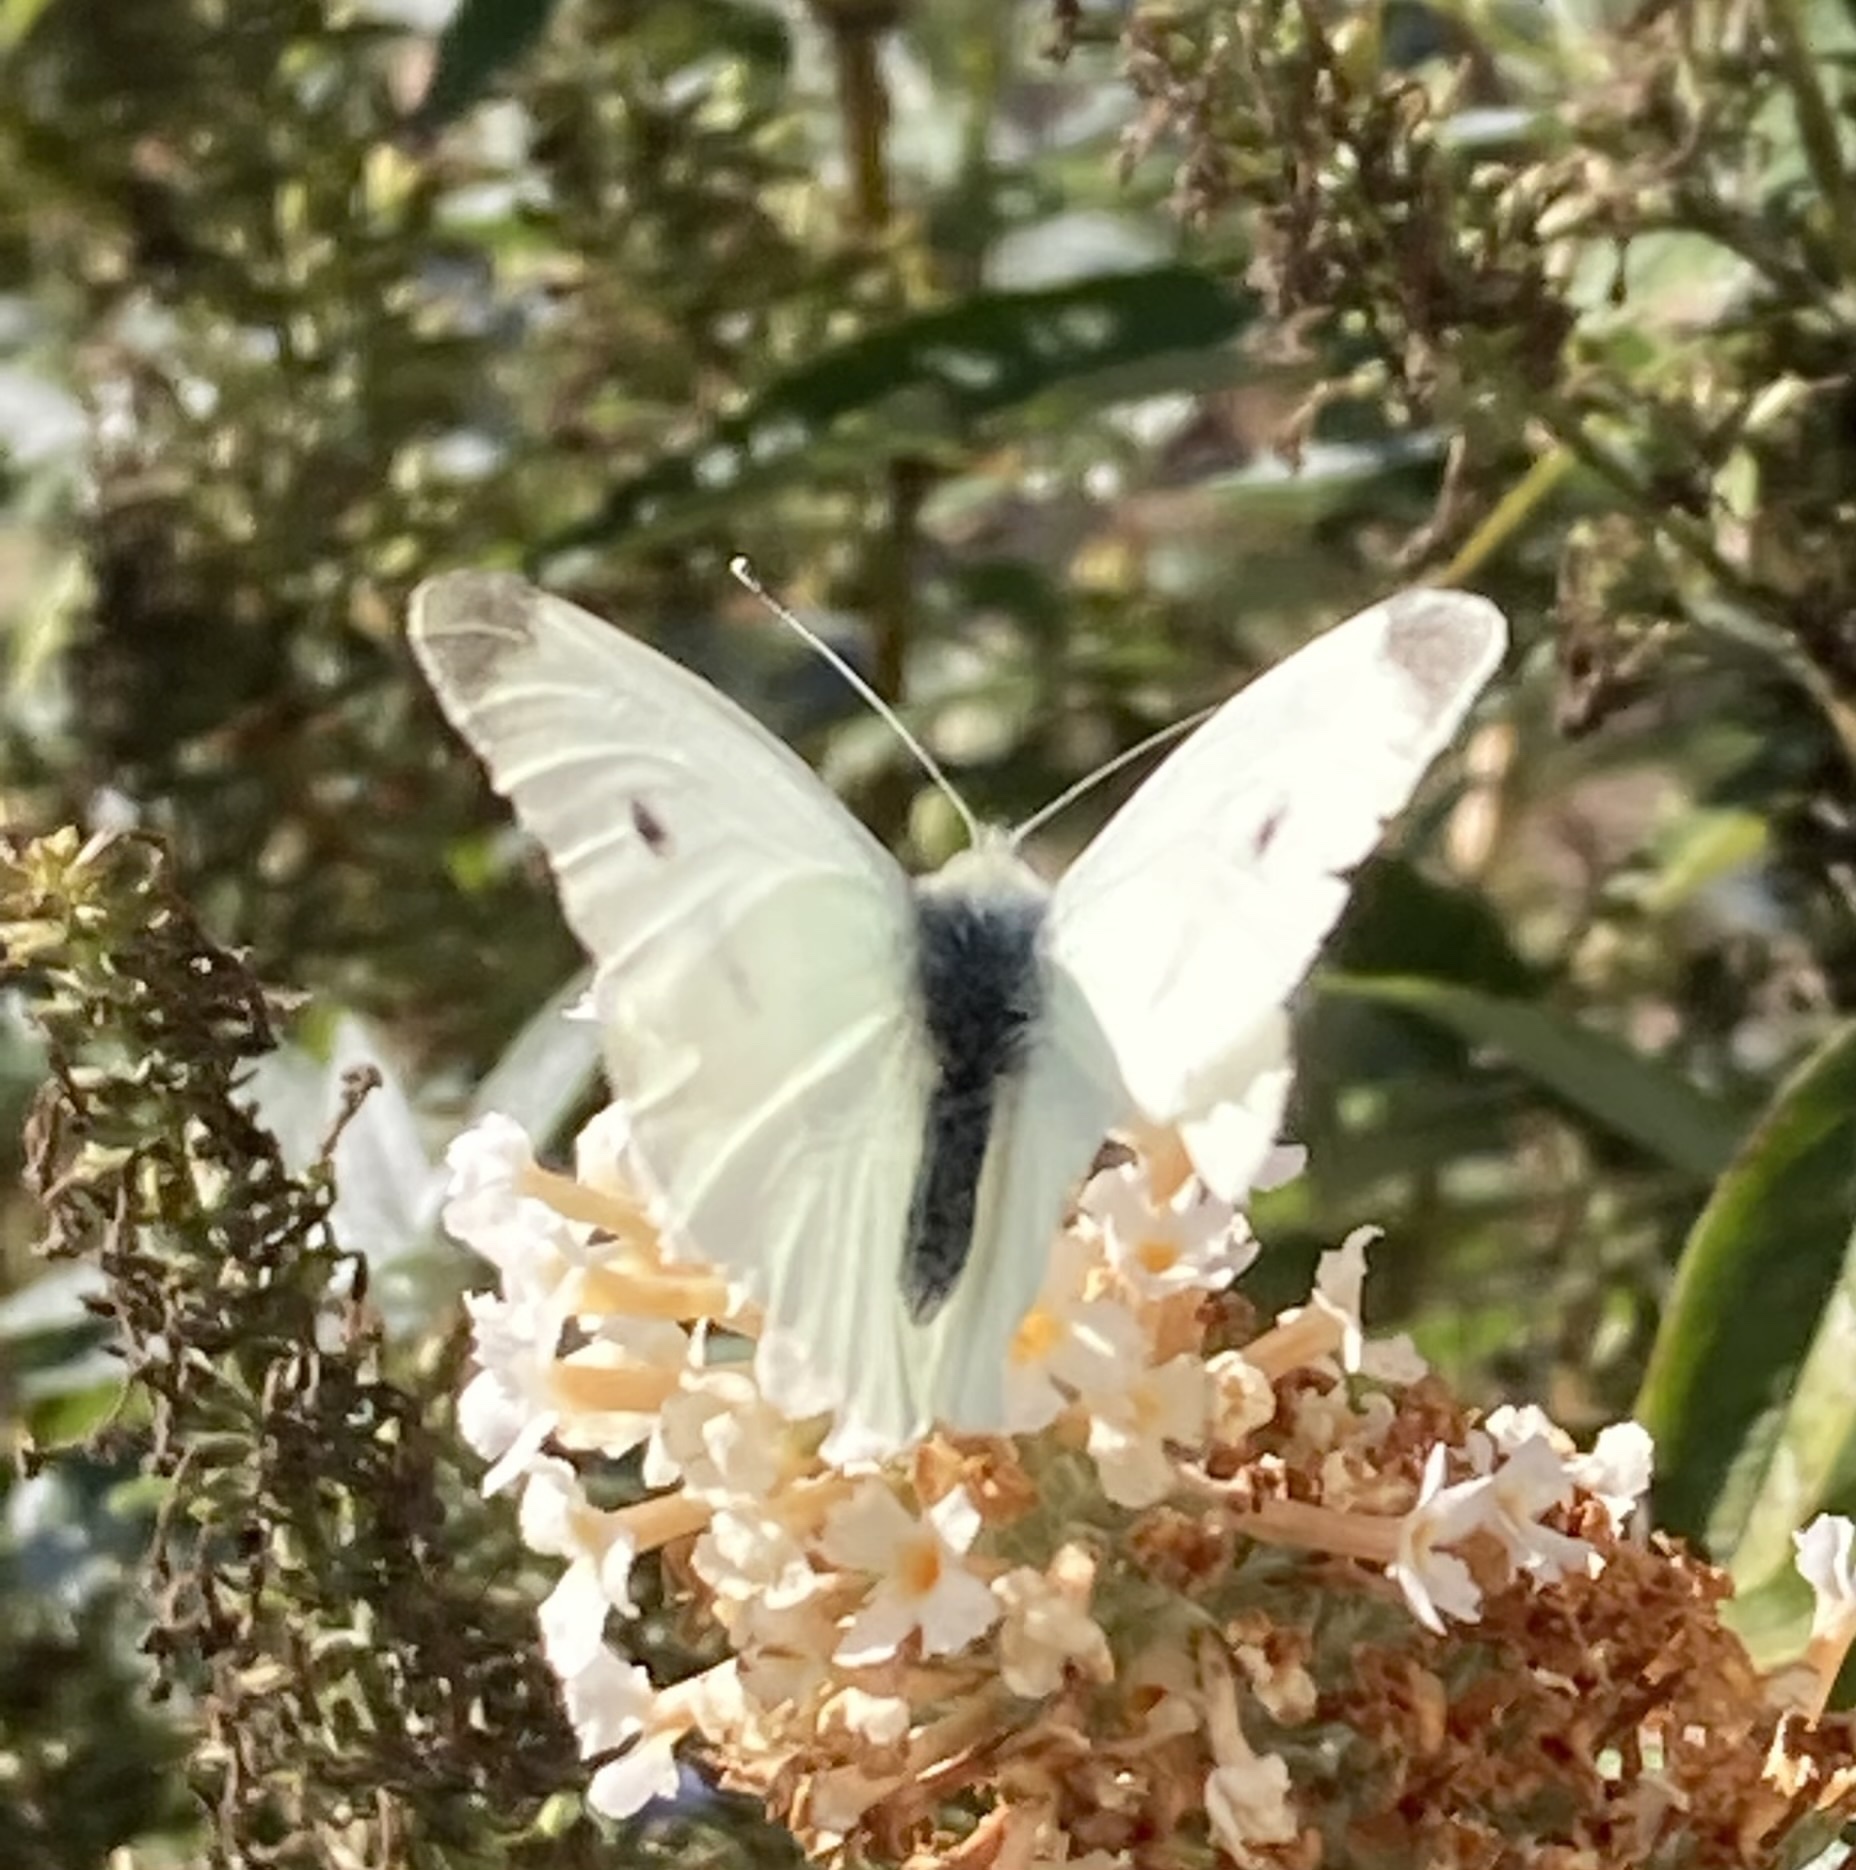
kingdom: Animalia
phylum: Arthropoda
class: Insecta
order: Lepidoptera
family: Pieridae
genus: Pieris
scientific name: Pieris rapae
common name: Small white
